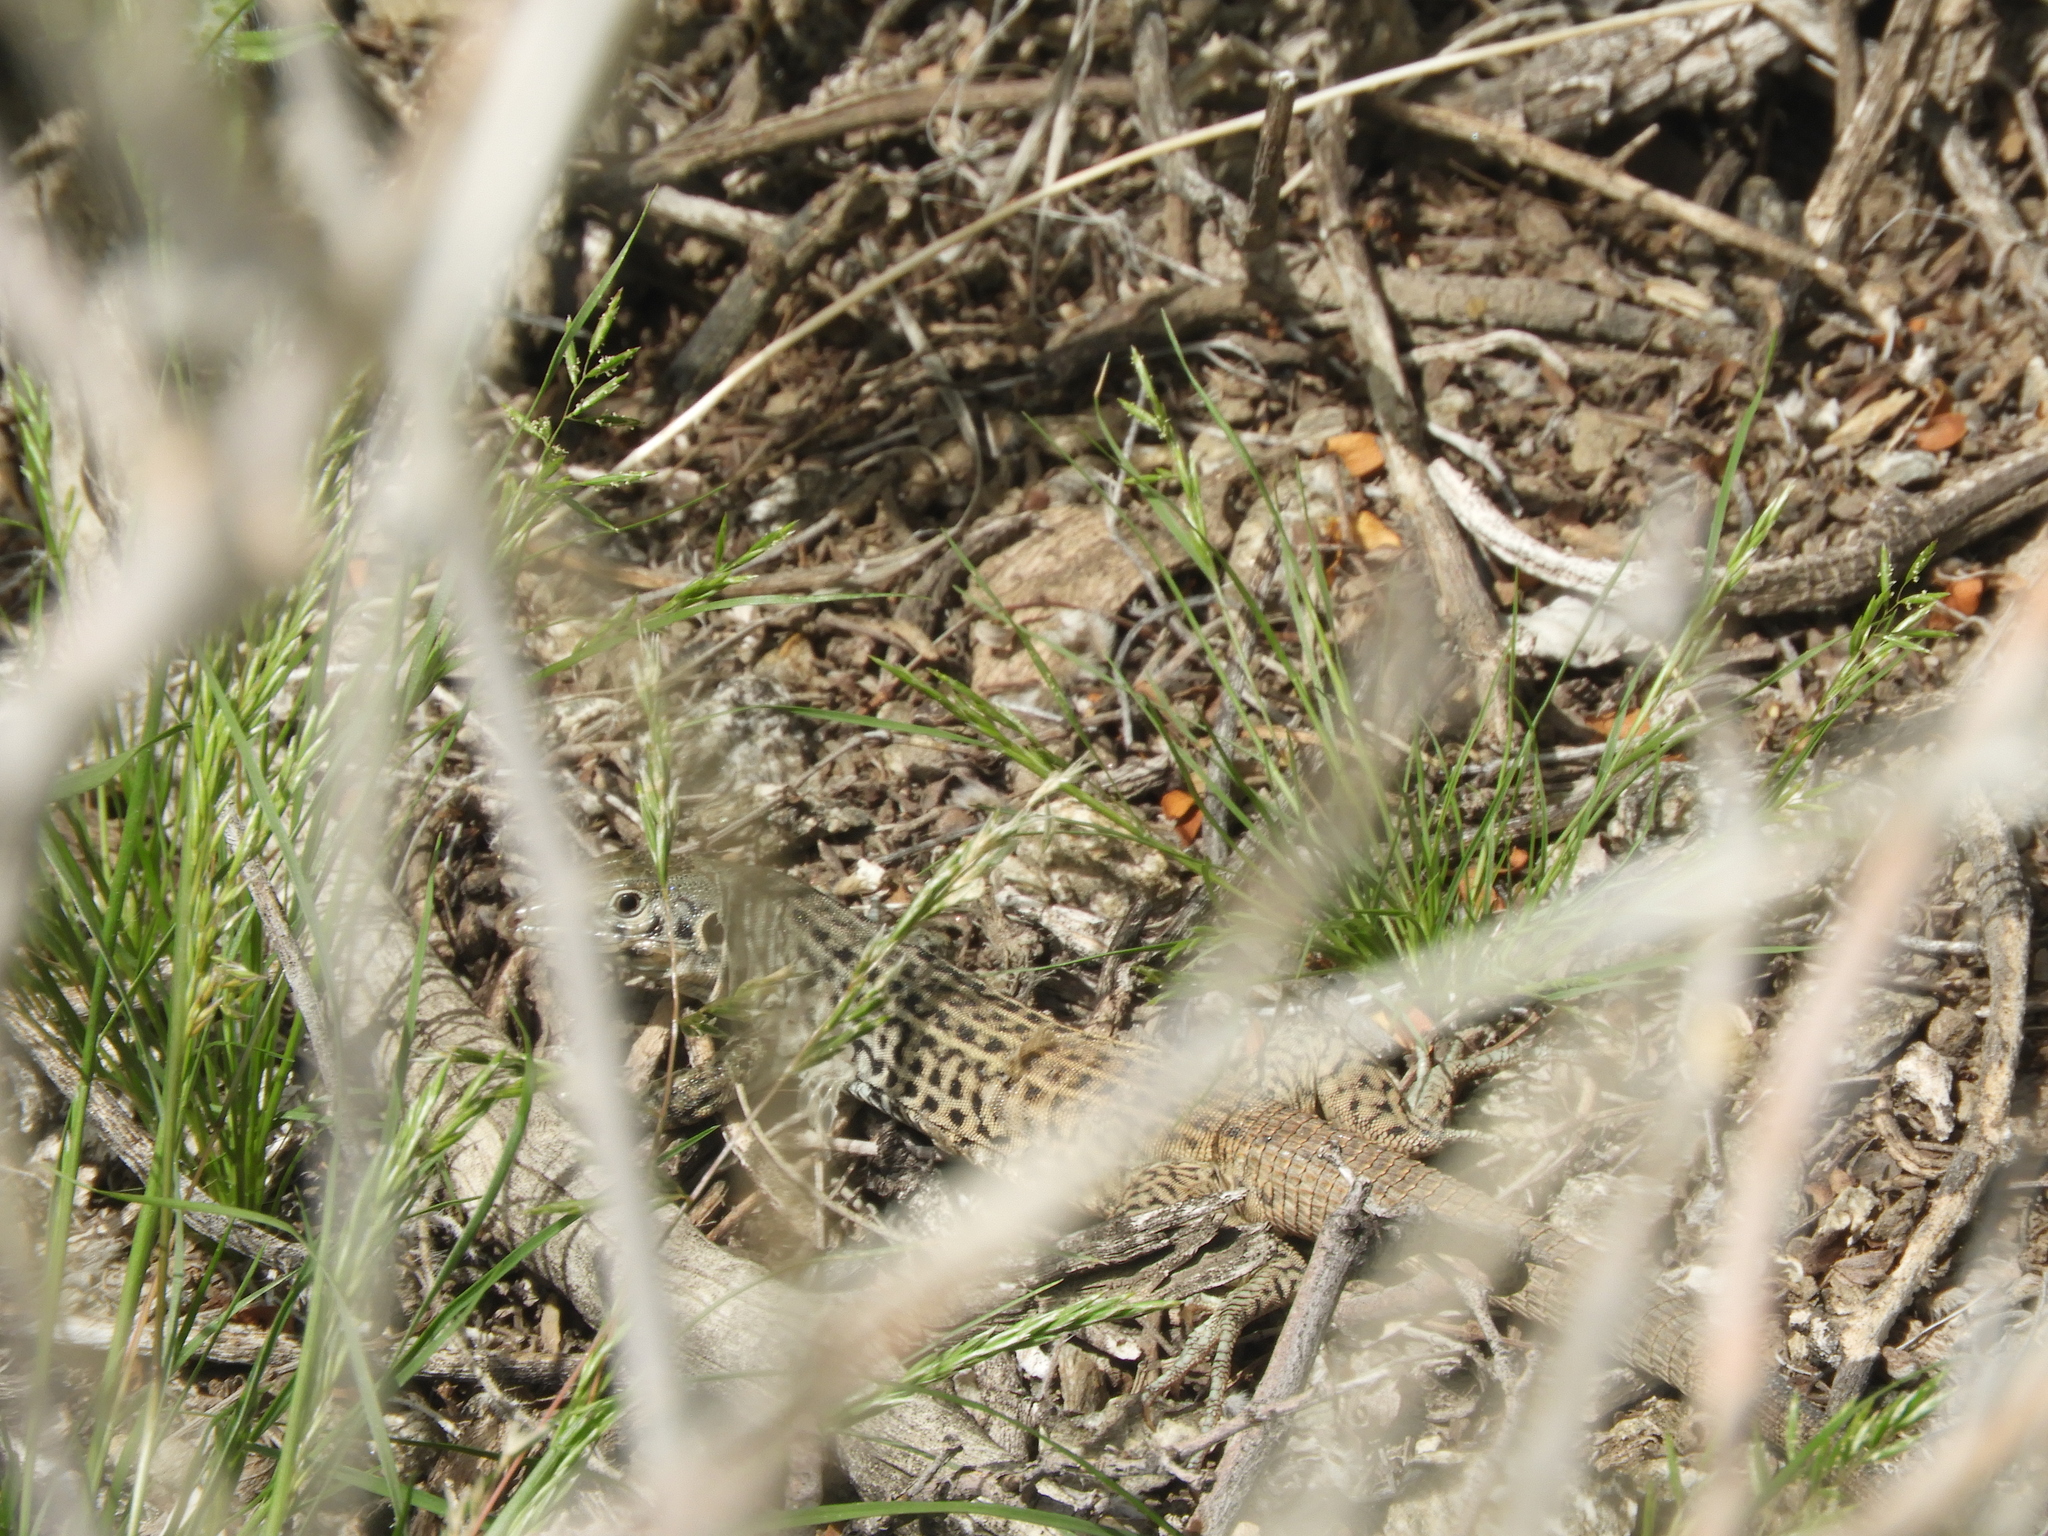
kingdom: Animalia
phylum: Chordata
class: Squamata
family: Teiidae
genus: Aspidoscelis
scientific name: Aspidoscelis tigris
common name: Tiger whiptail
